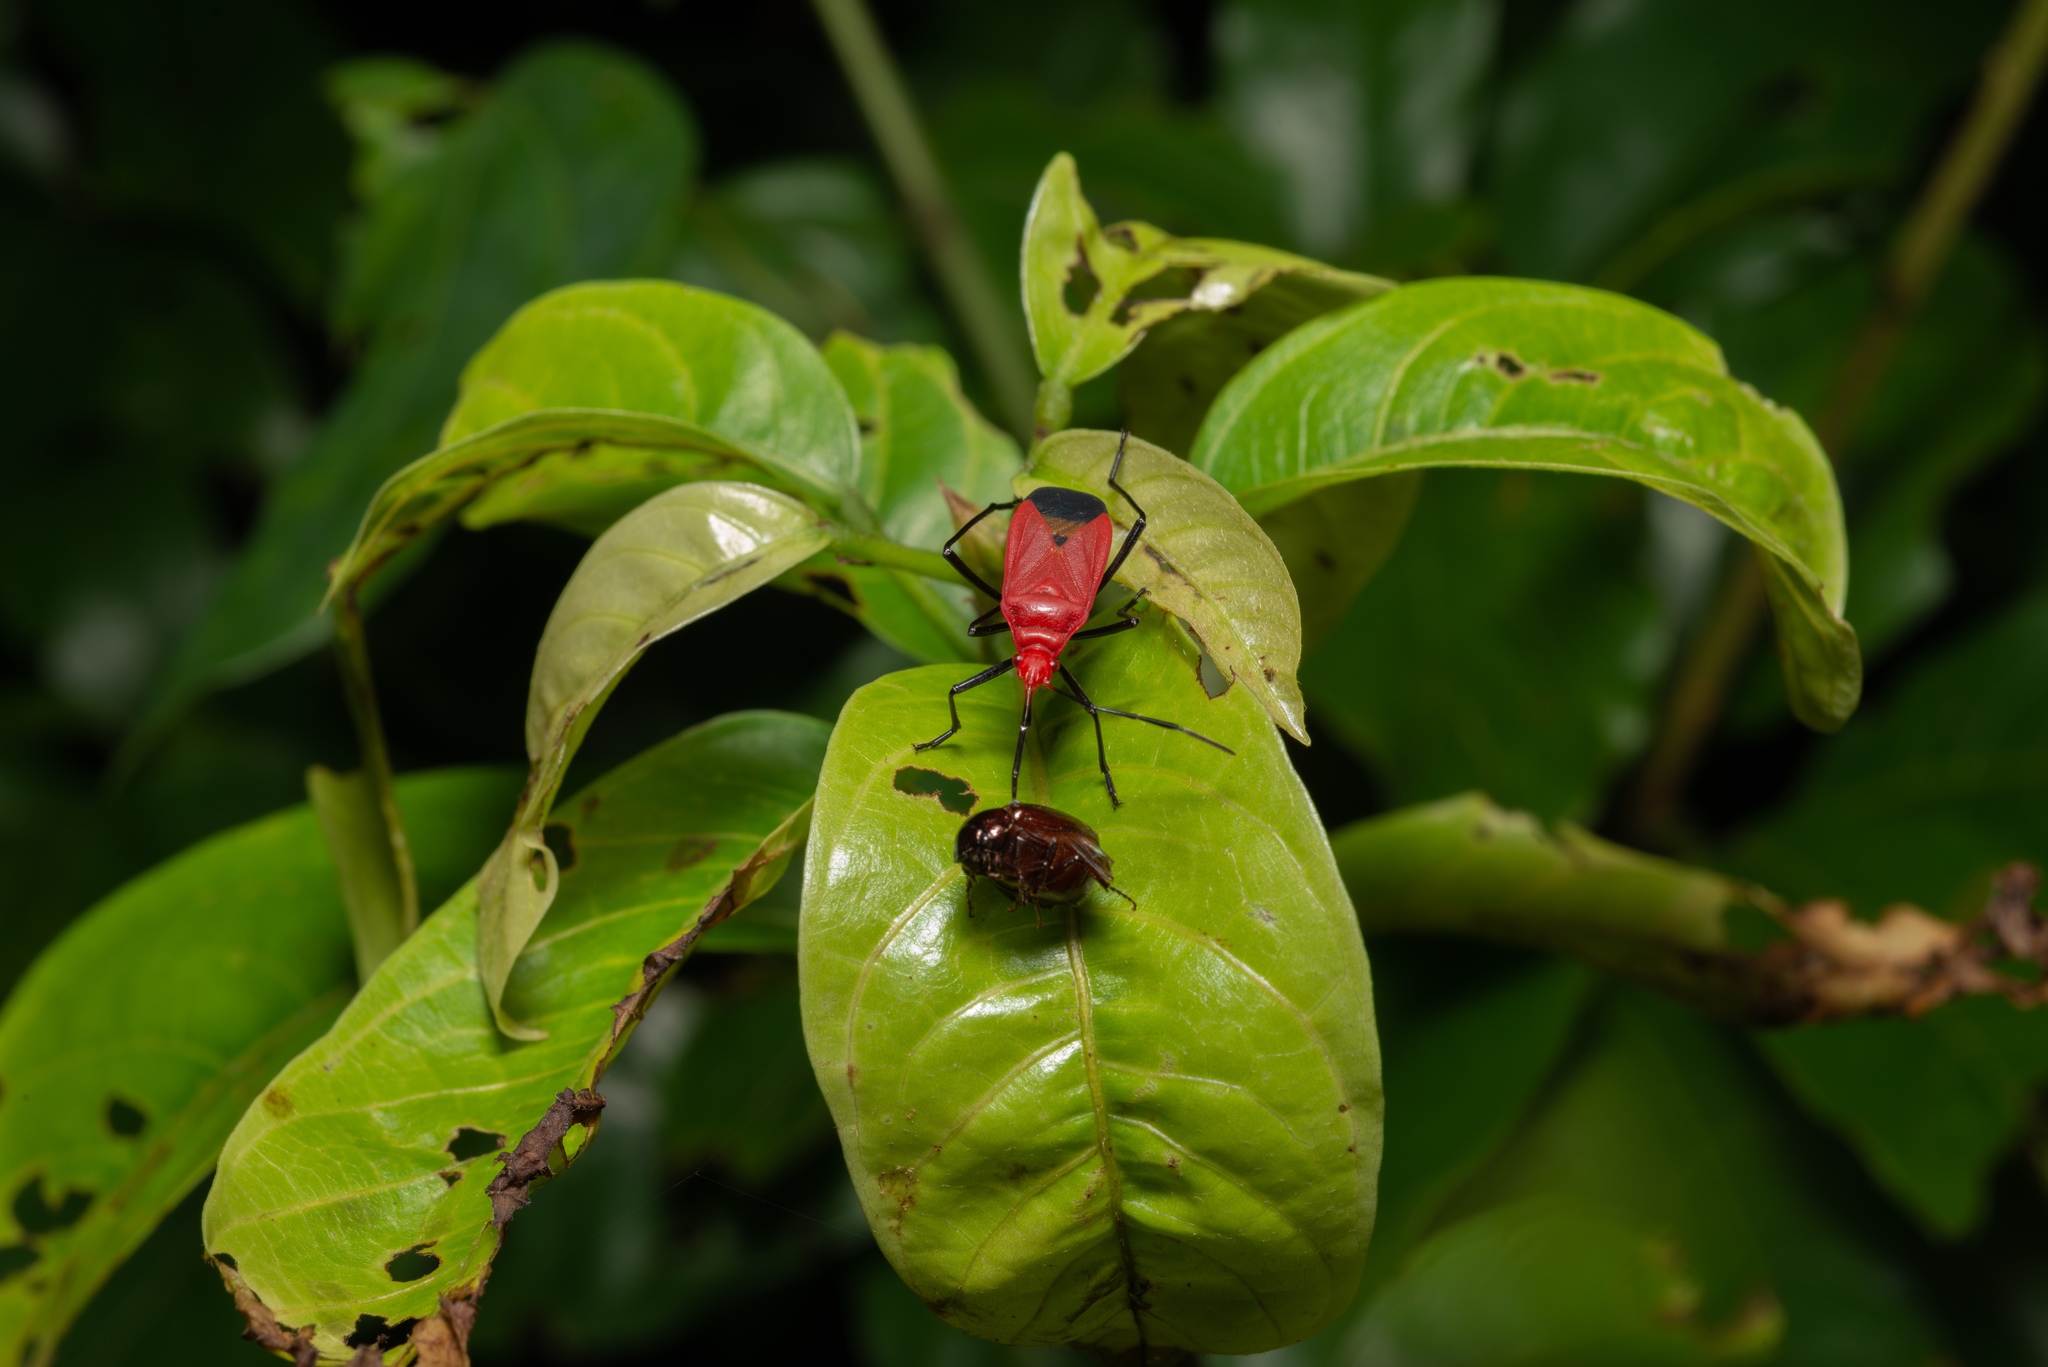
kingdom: Animalia
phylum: Arthropoda
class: Insecta
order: Hemiptera
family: Pyrrhocoridae
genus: Dindymus
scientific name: Dindymus
